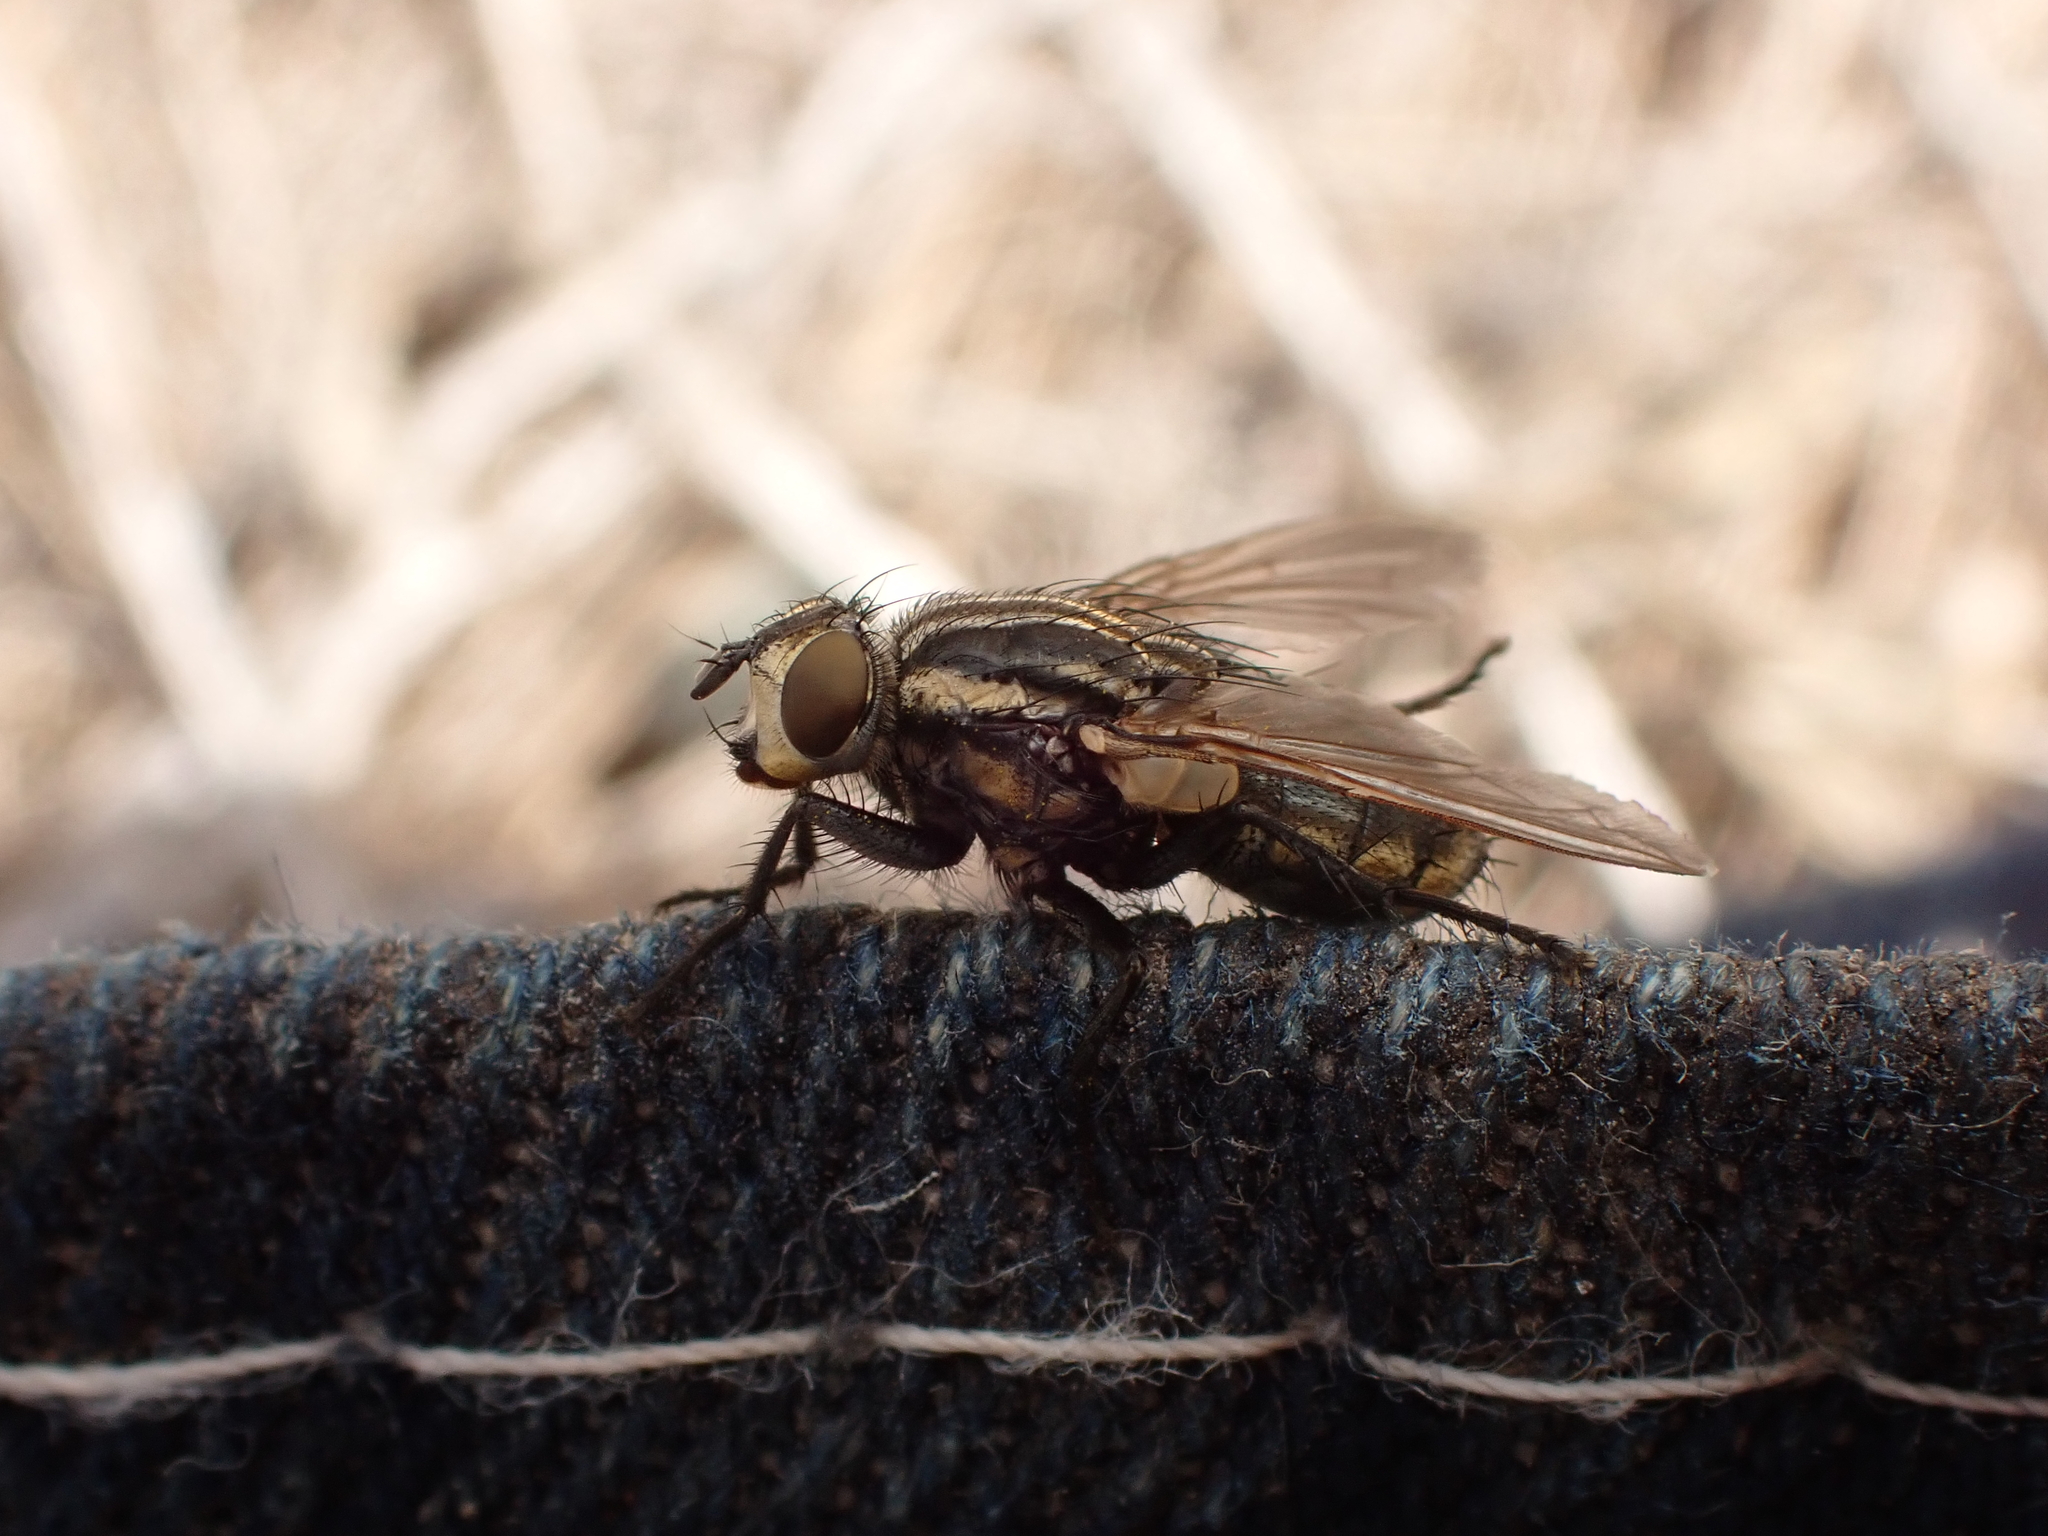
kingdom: Animalia
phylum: Arthropoda
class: Insecta
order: Diptera
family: Sarcophagidae
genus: Oxysarcodexia
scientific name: Oxysarcodexia varia
